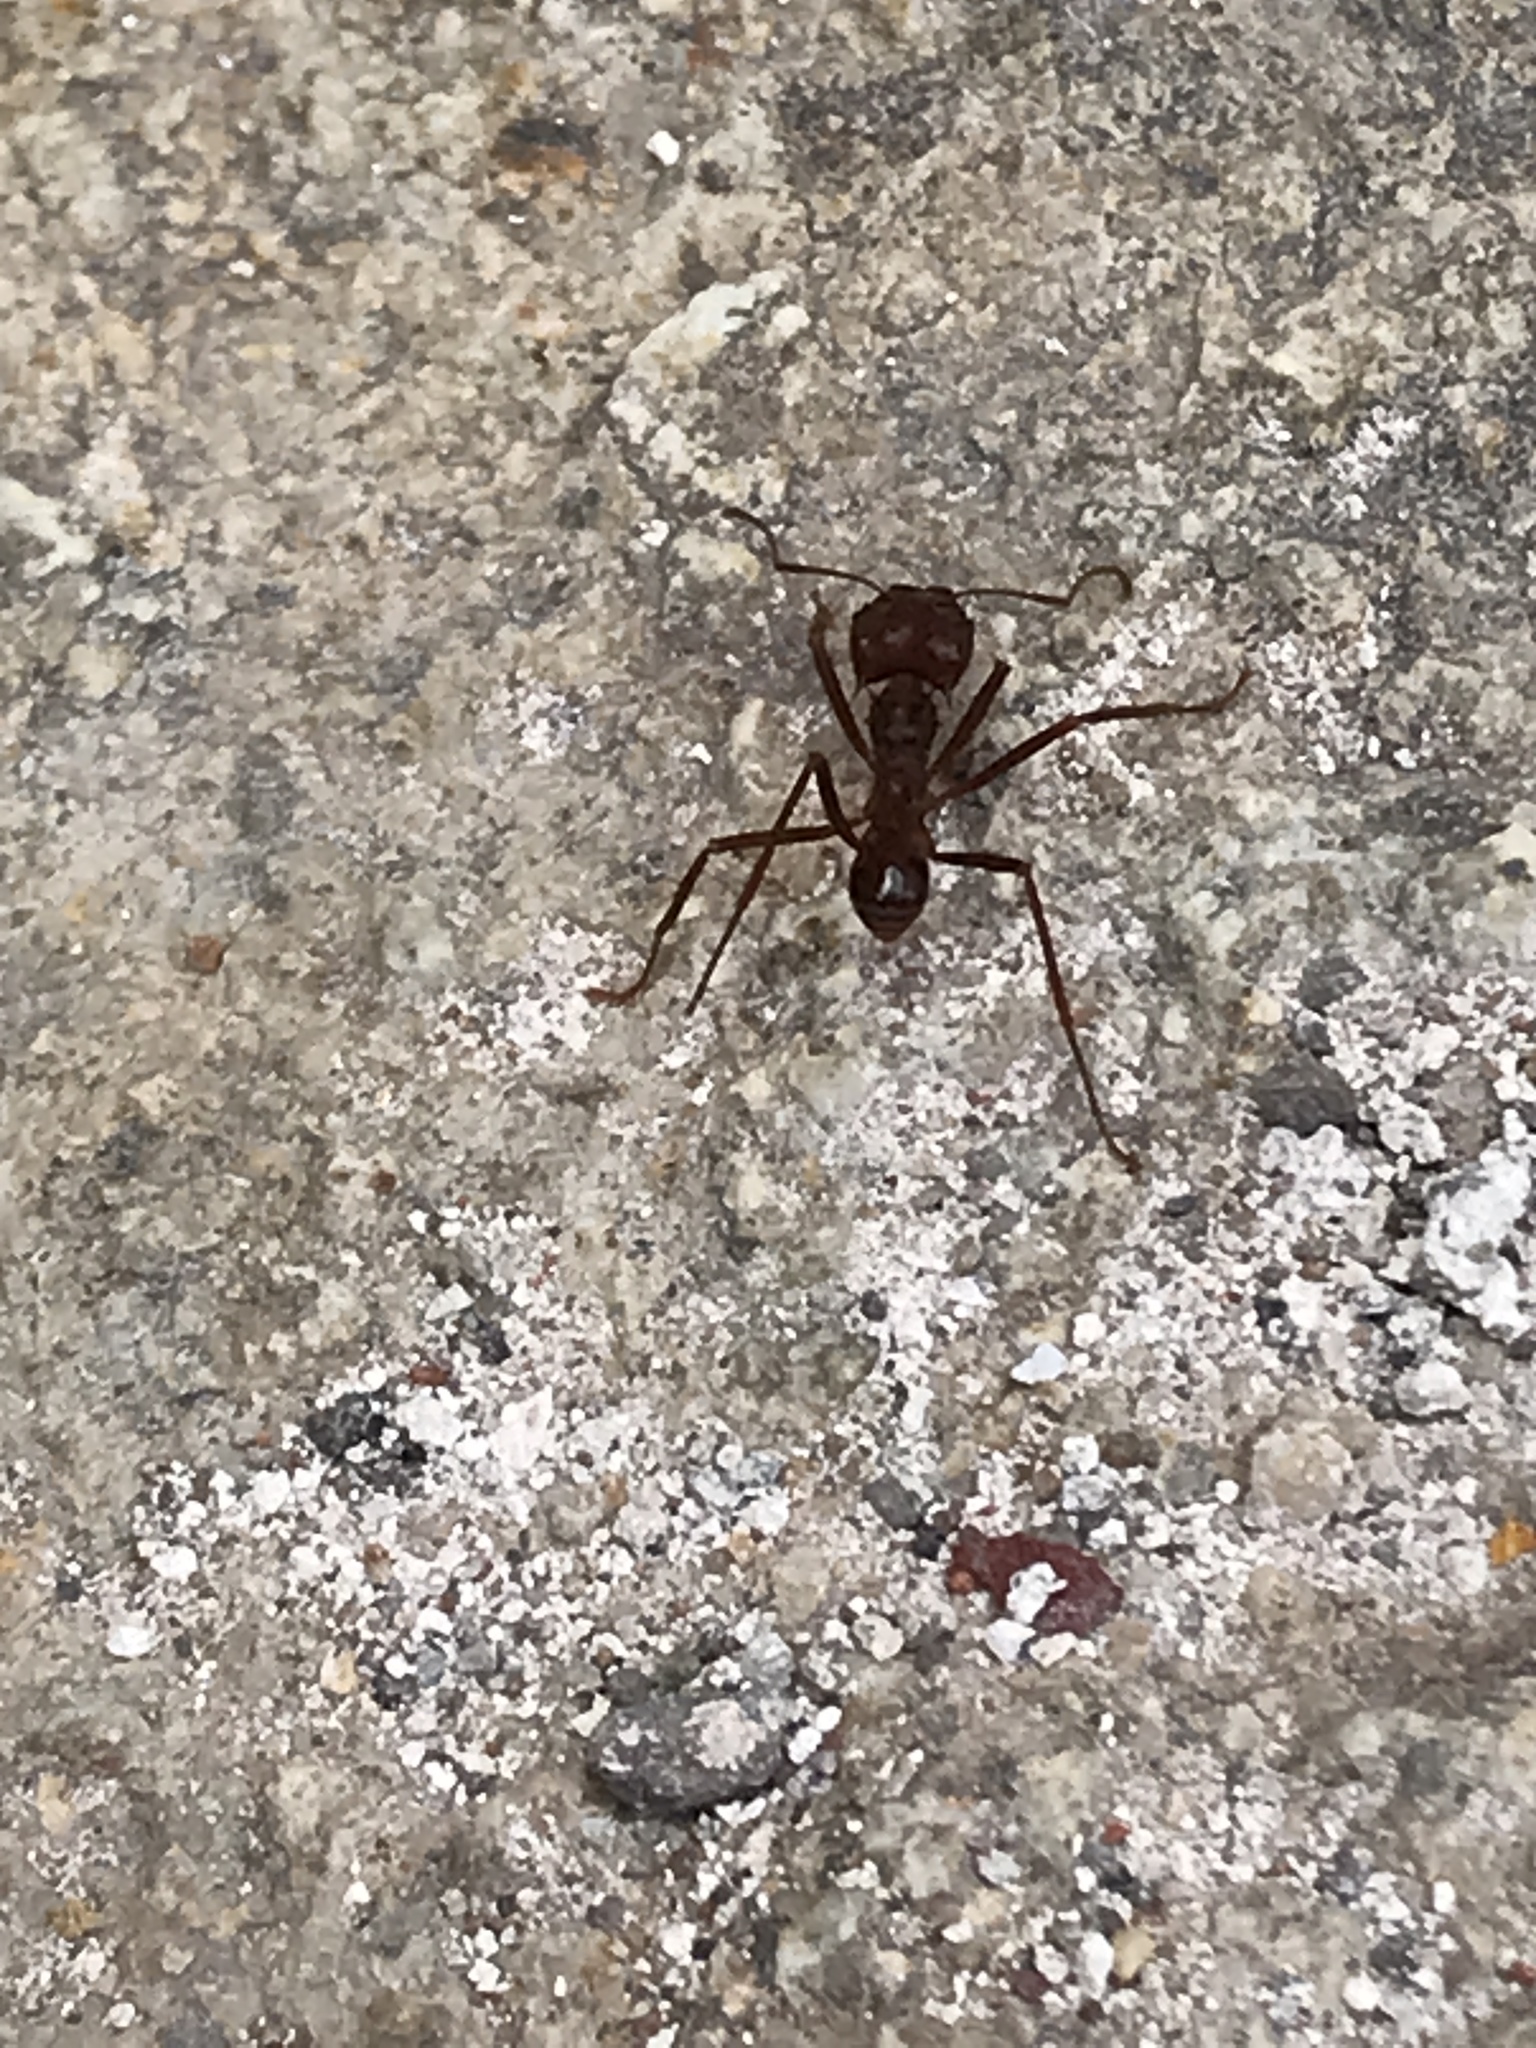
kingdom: Animalia
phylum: Arthropoda
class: Insecta
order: Hymenoptera
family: Formicidae
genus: Atta
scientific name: Atta mexicana
